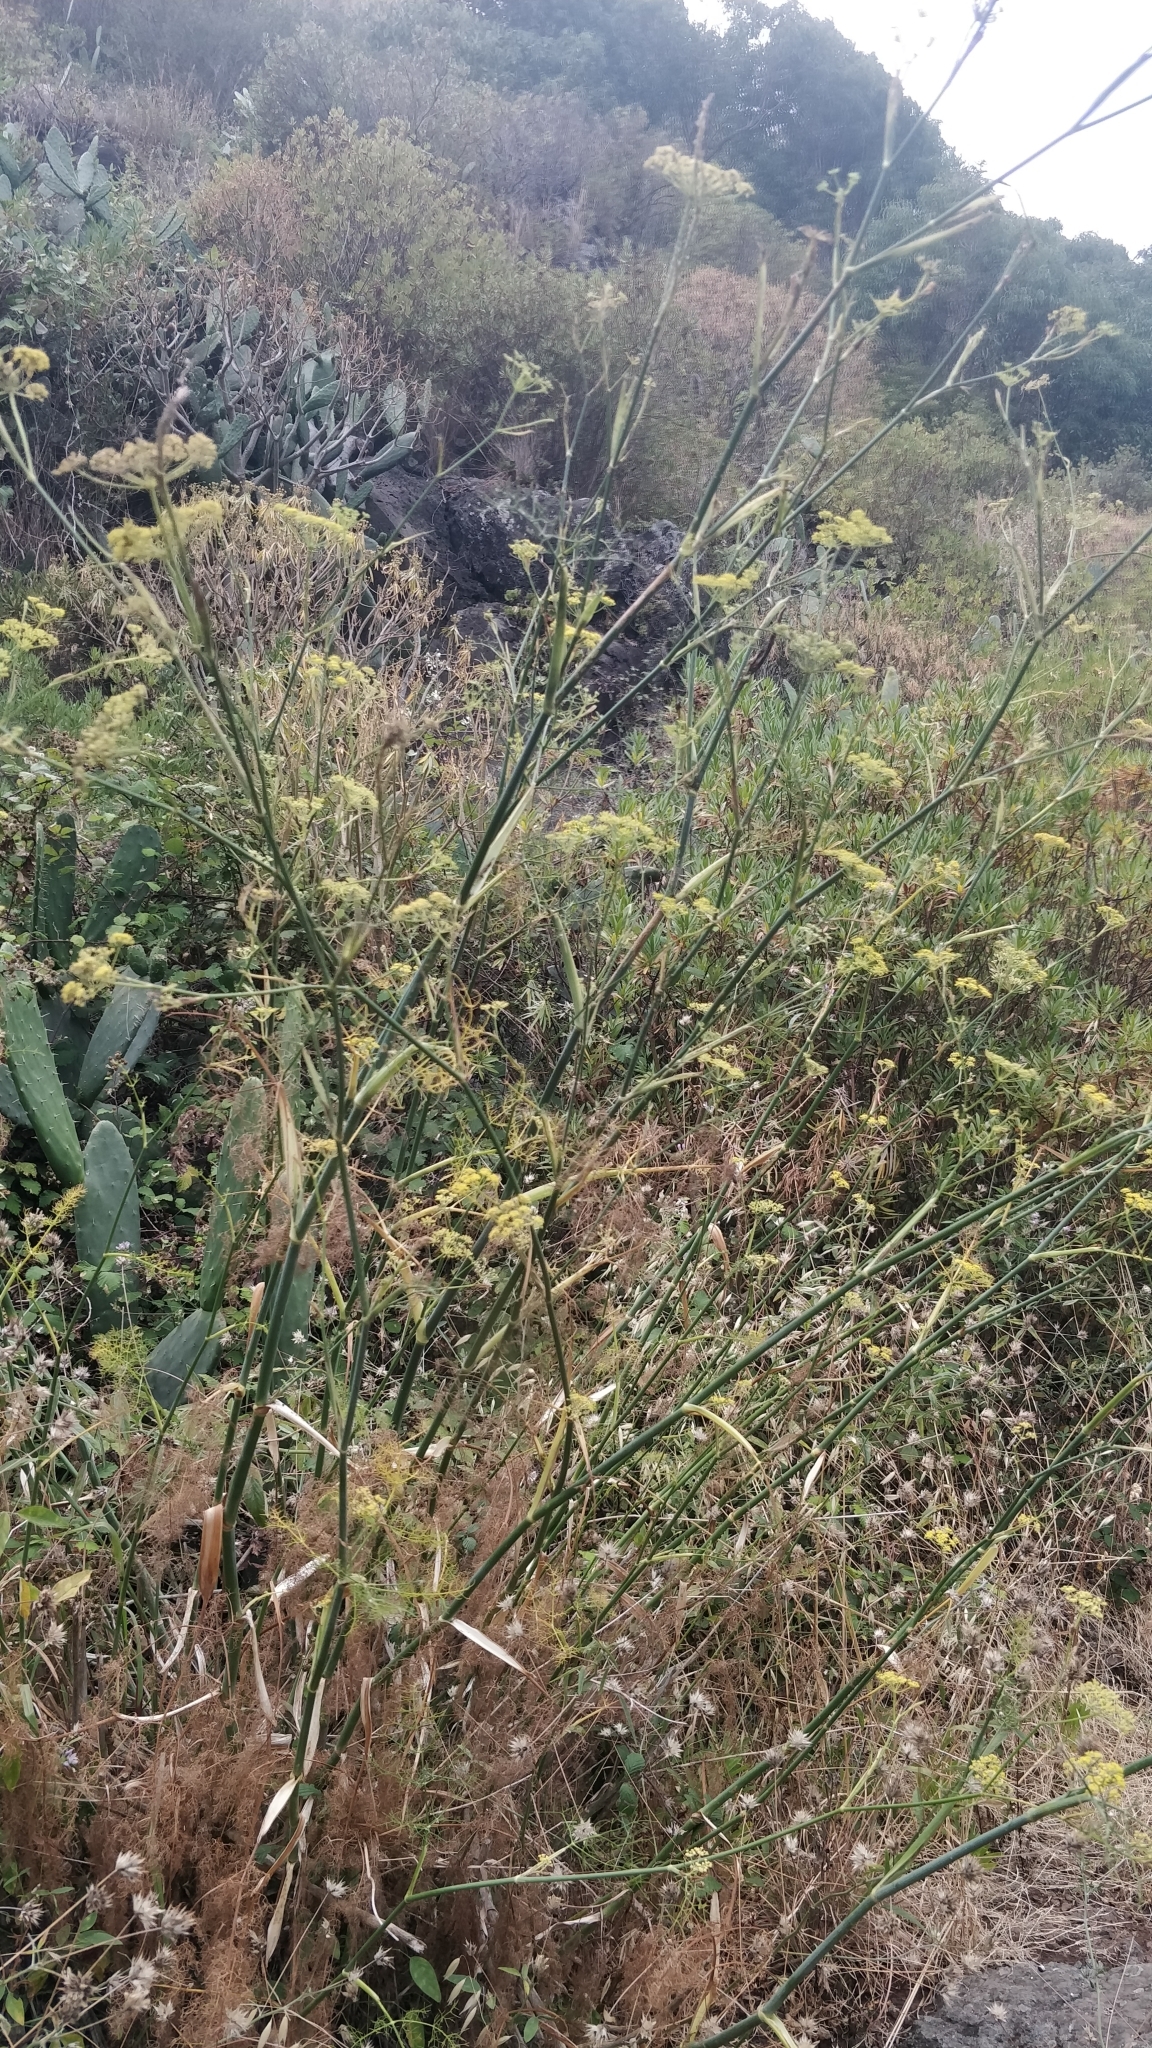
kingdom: Plantae
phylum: Tracheophyta
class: Magnoliopsida
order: Apiales
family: Apiaceae
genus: Foeniculum
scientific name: Foeniculum vulgare
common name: Fennel
